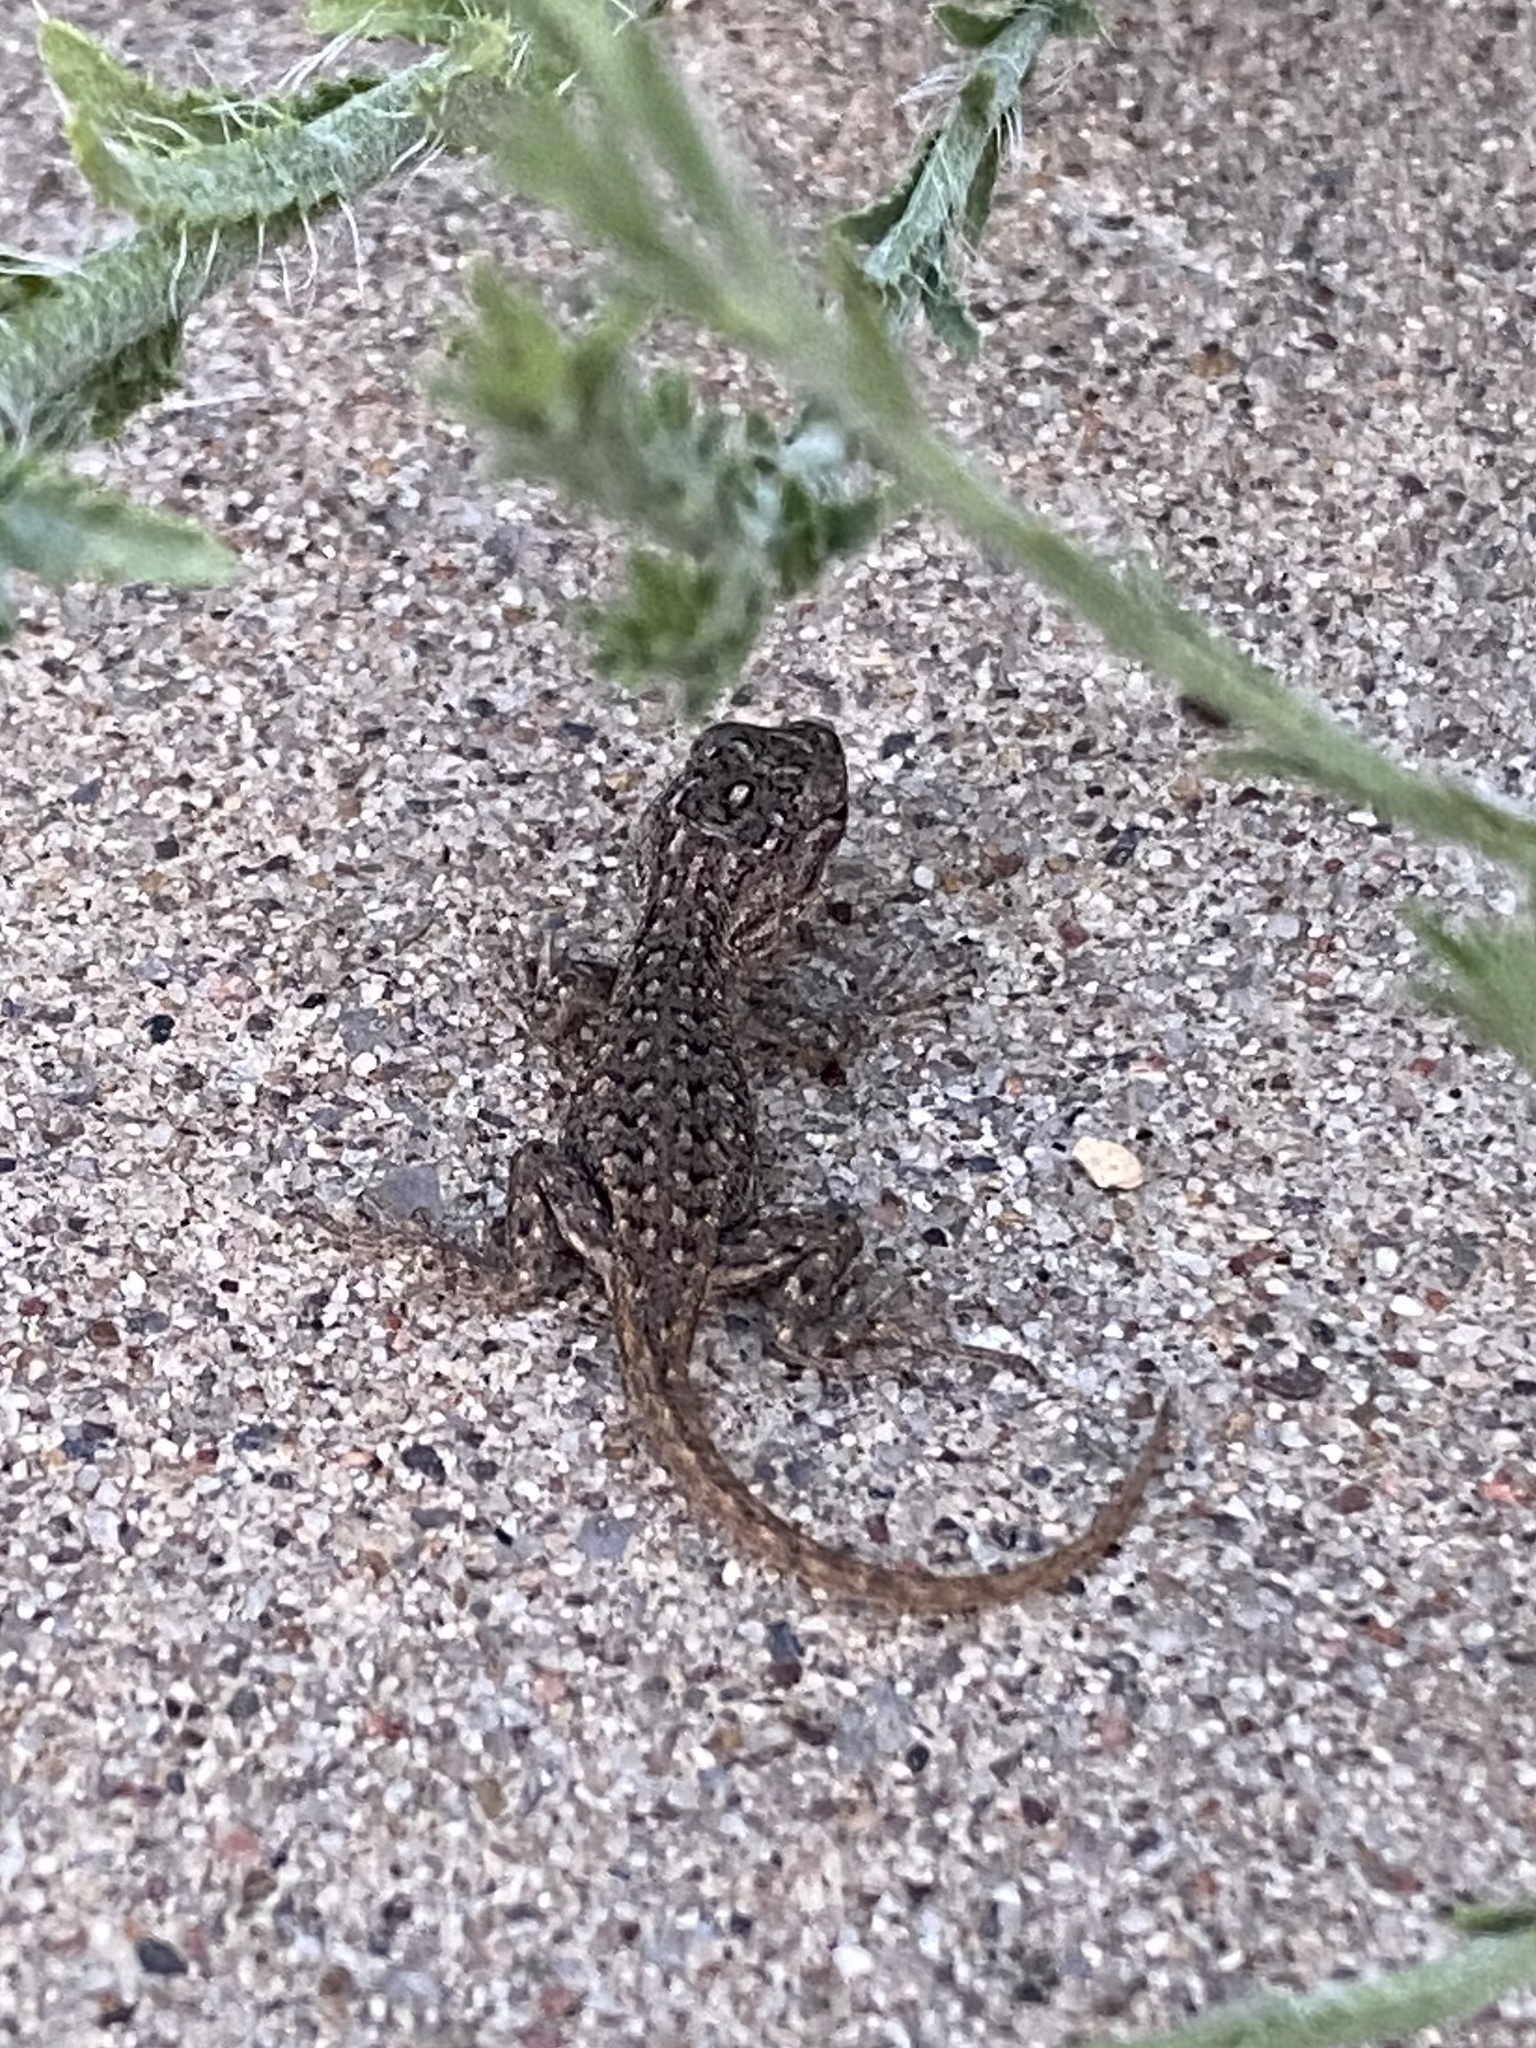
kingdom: Animalia
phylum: Chordata
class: Squamata
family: Phrynosomatidae
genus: Sceloporus
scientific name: Sceloporus cowlesi
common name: White sands prairie lizard
